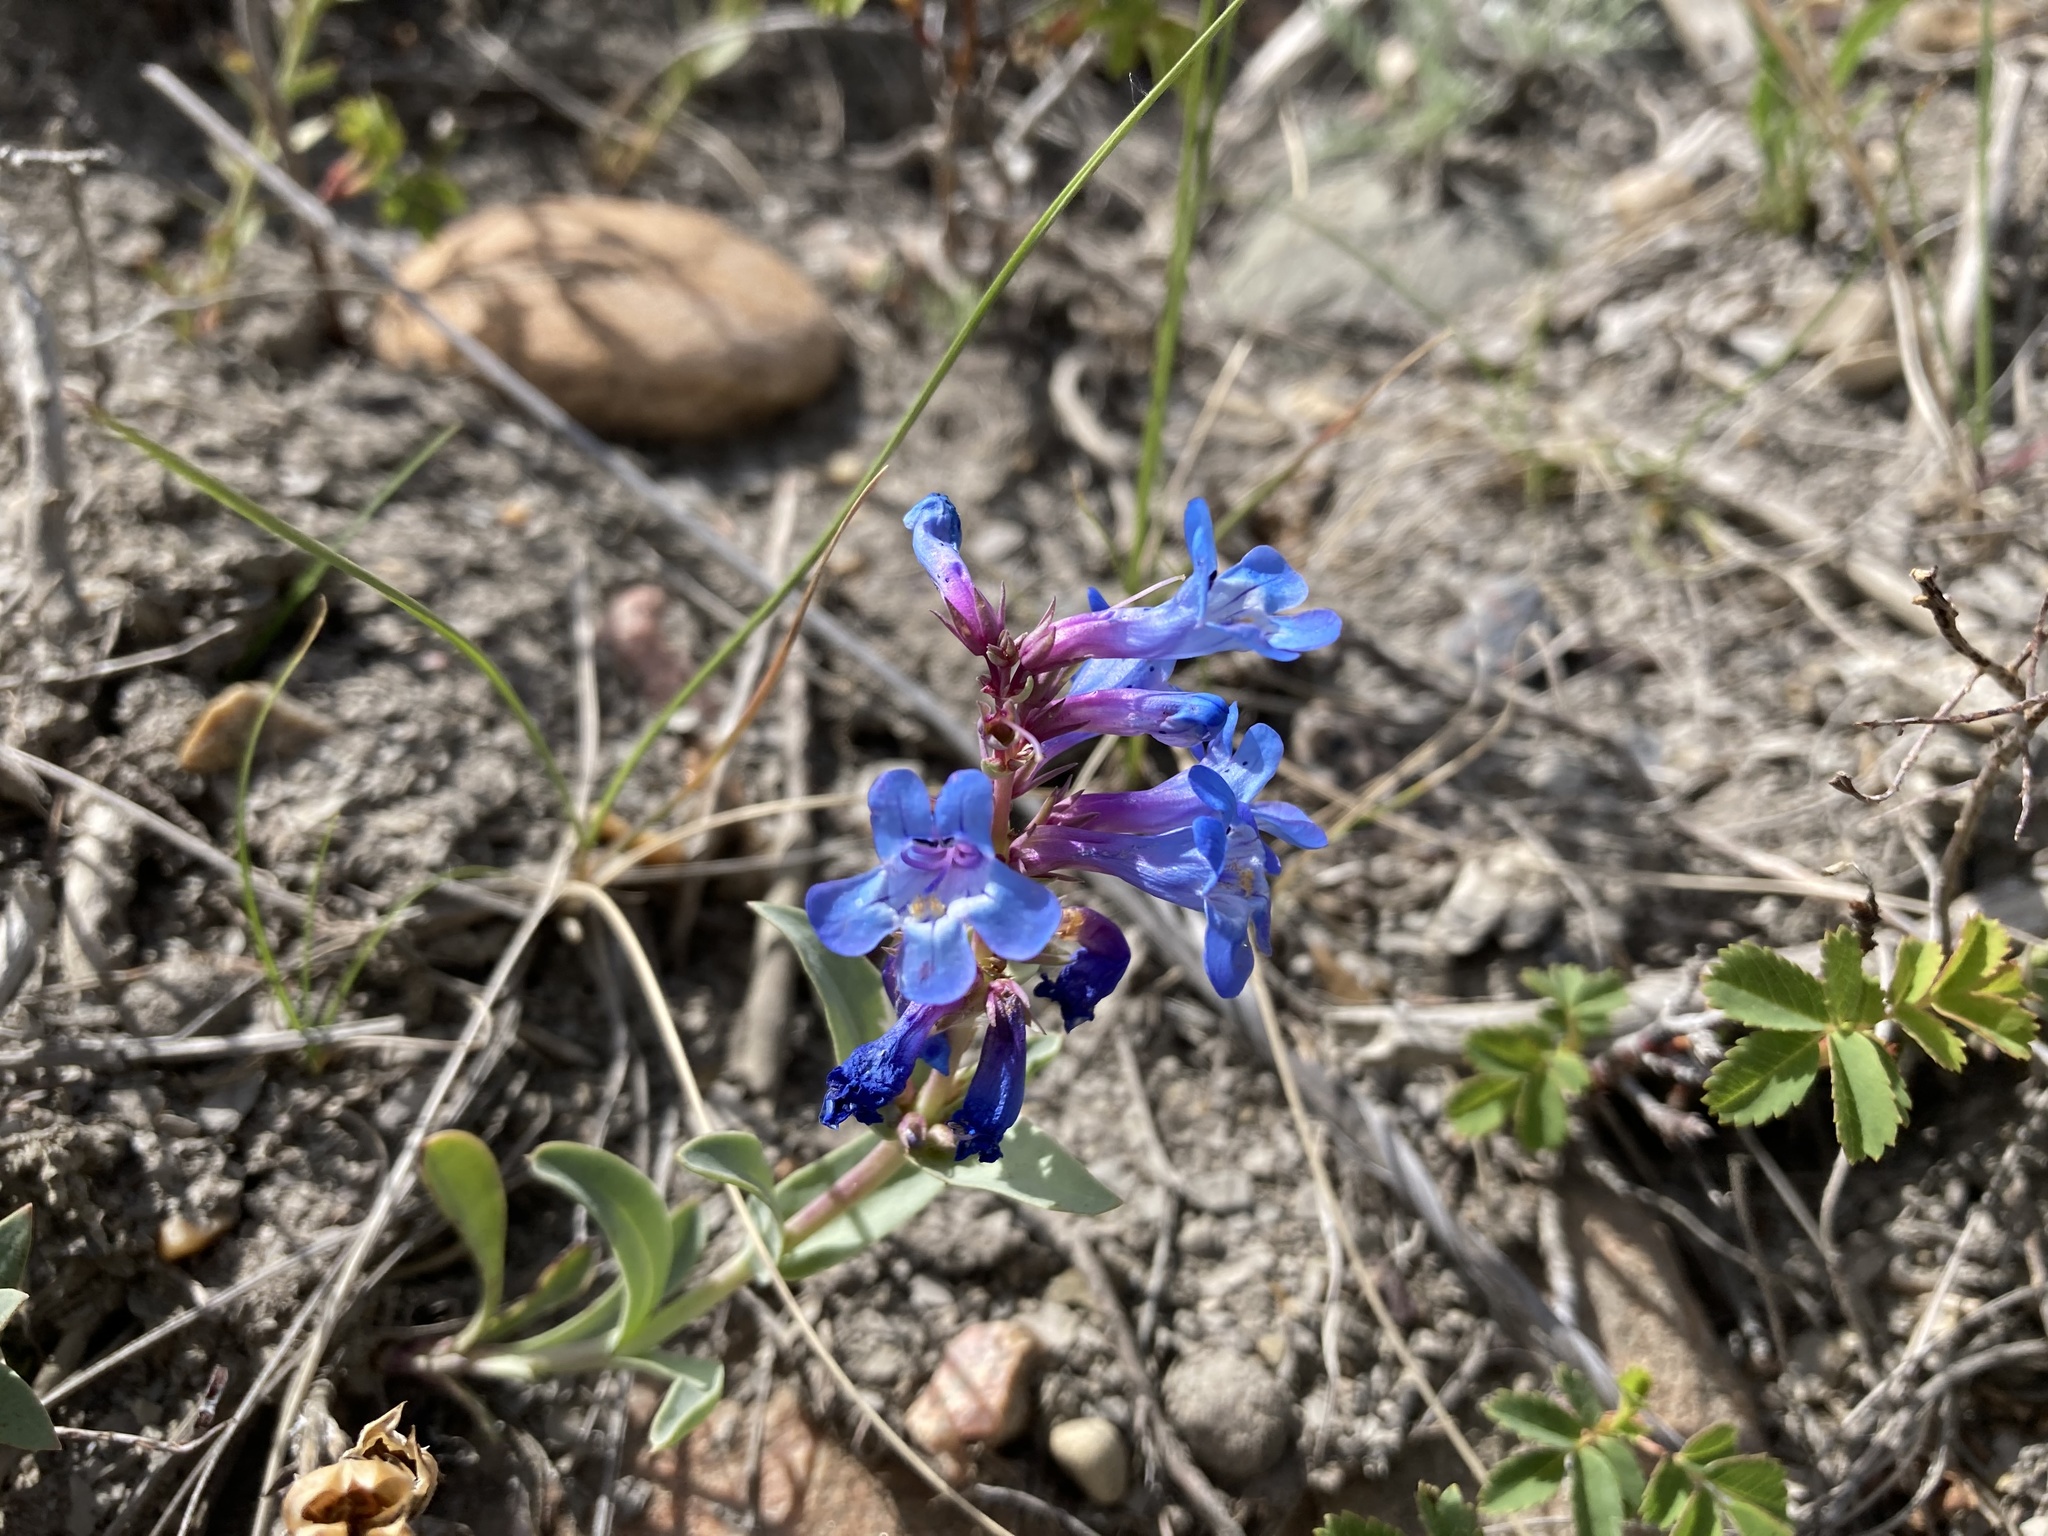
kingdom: Plantae
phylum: Tracheophyta
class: Magnoliopsida
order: Lamiales
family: Plantaginaceae
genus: Penstemon
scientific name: Penstemon nitidus
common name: Shining penstemon
